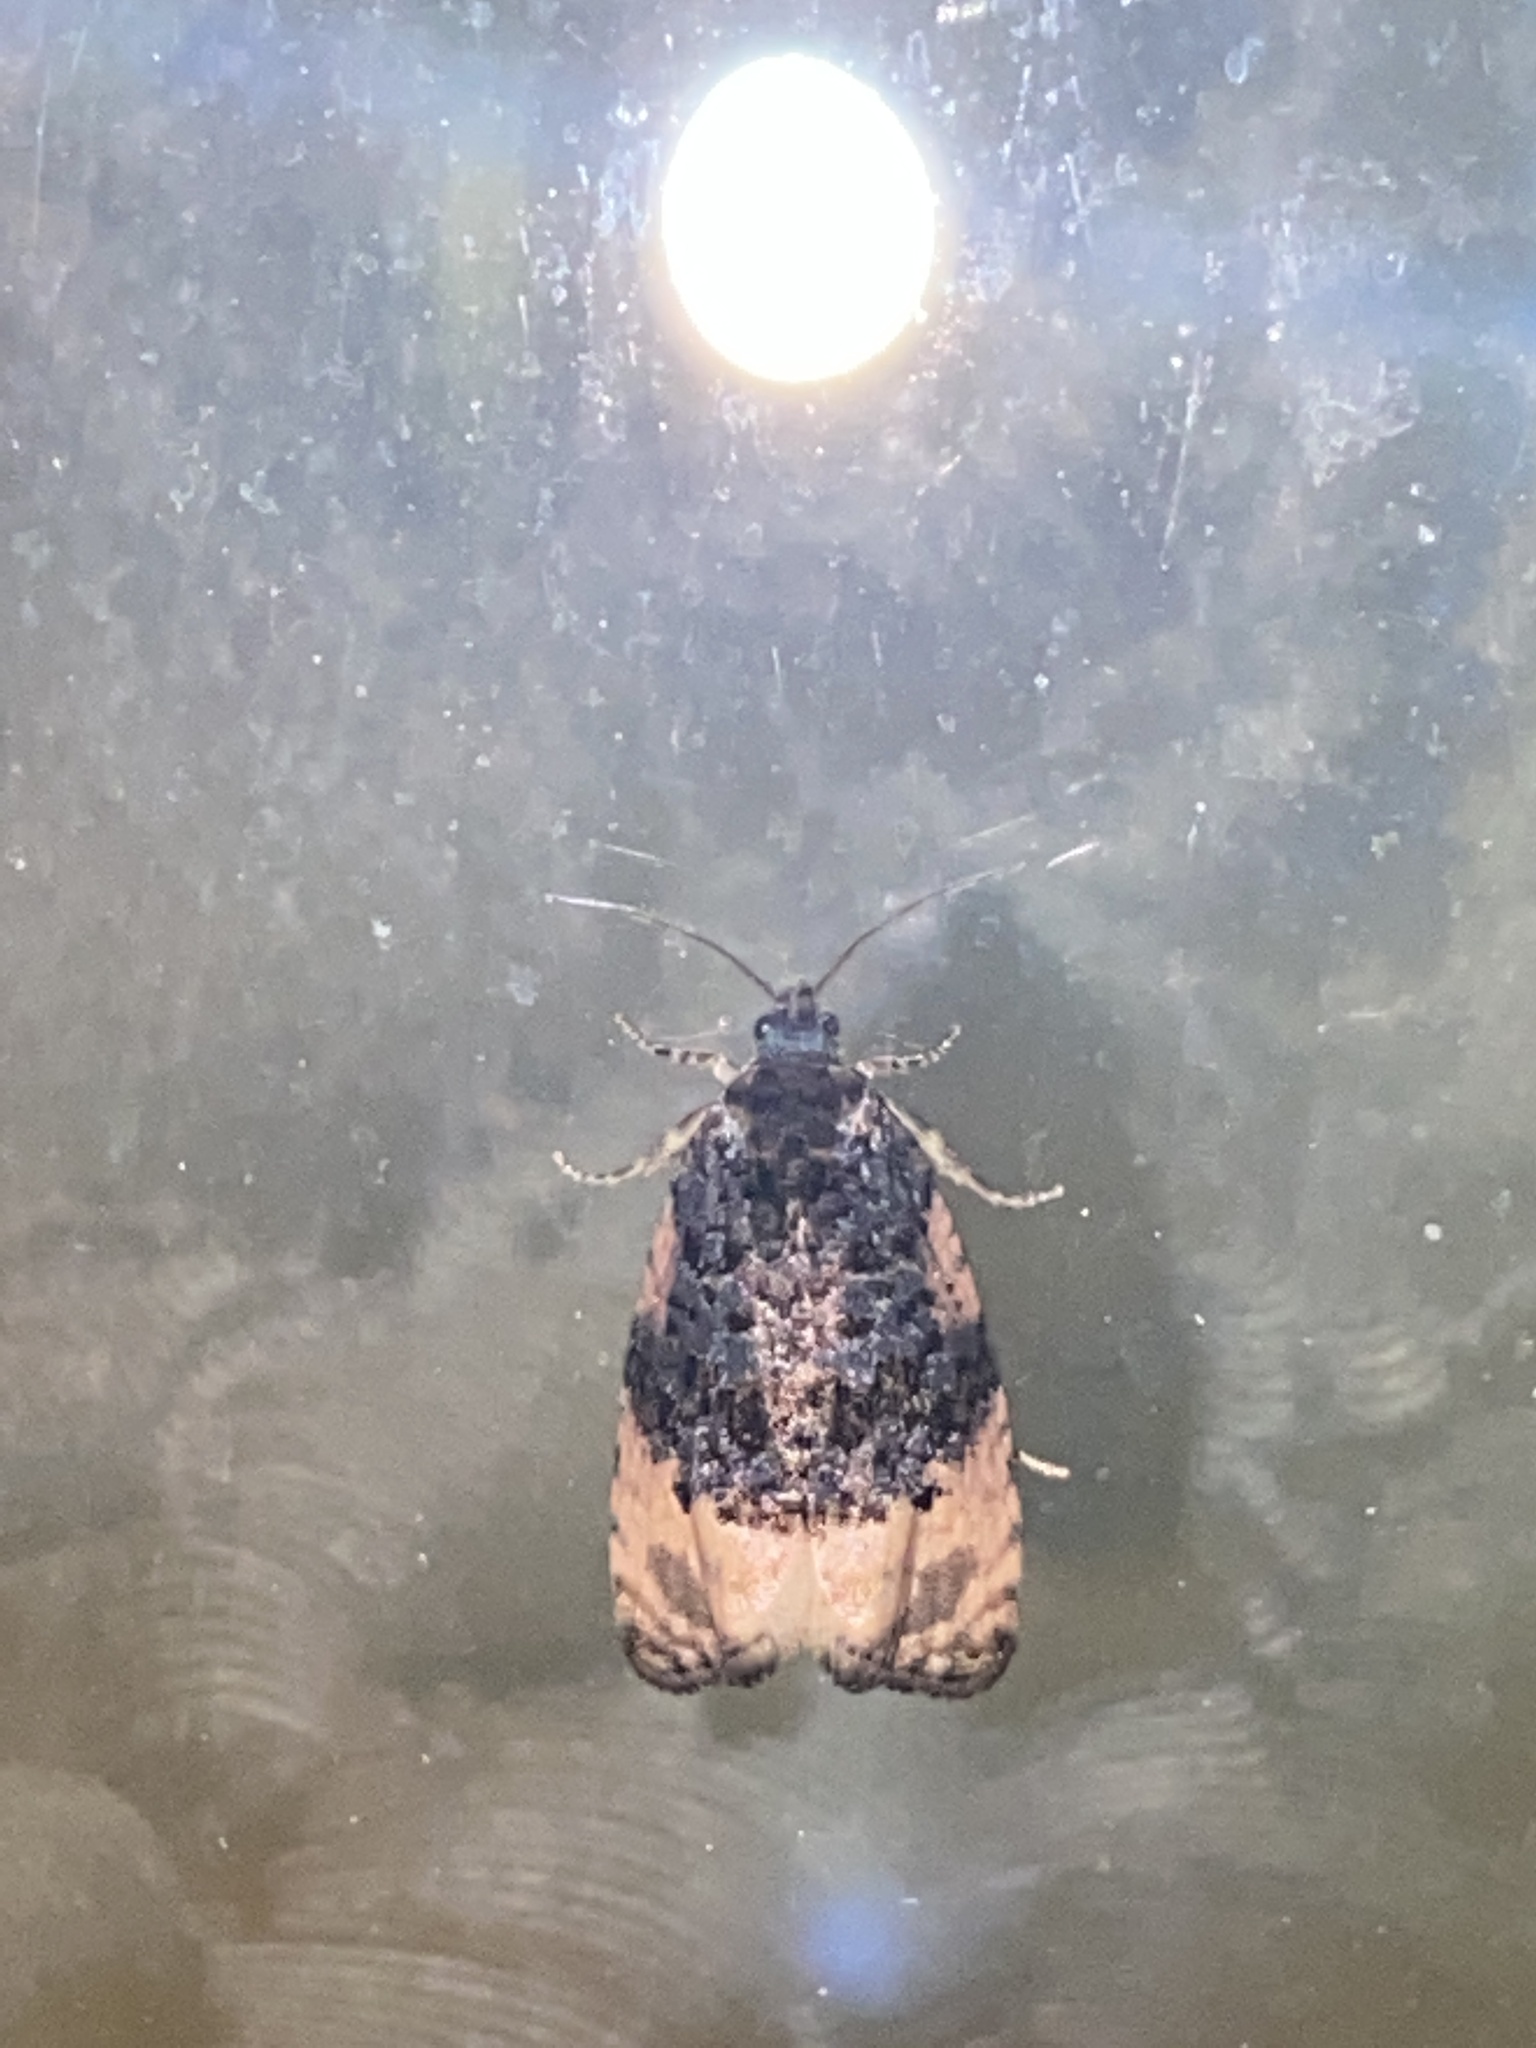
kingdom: Animalia
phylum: Arthropoda
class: Insecta
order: Lepidoptera
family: Tortricidae
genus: Metendothenia
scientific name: Metendothenia atropunctana
